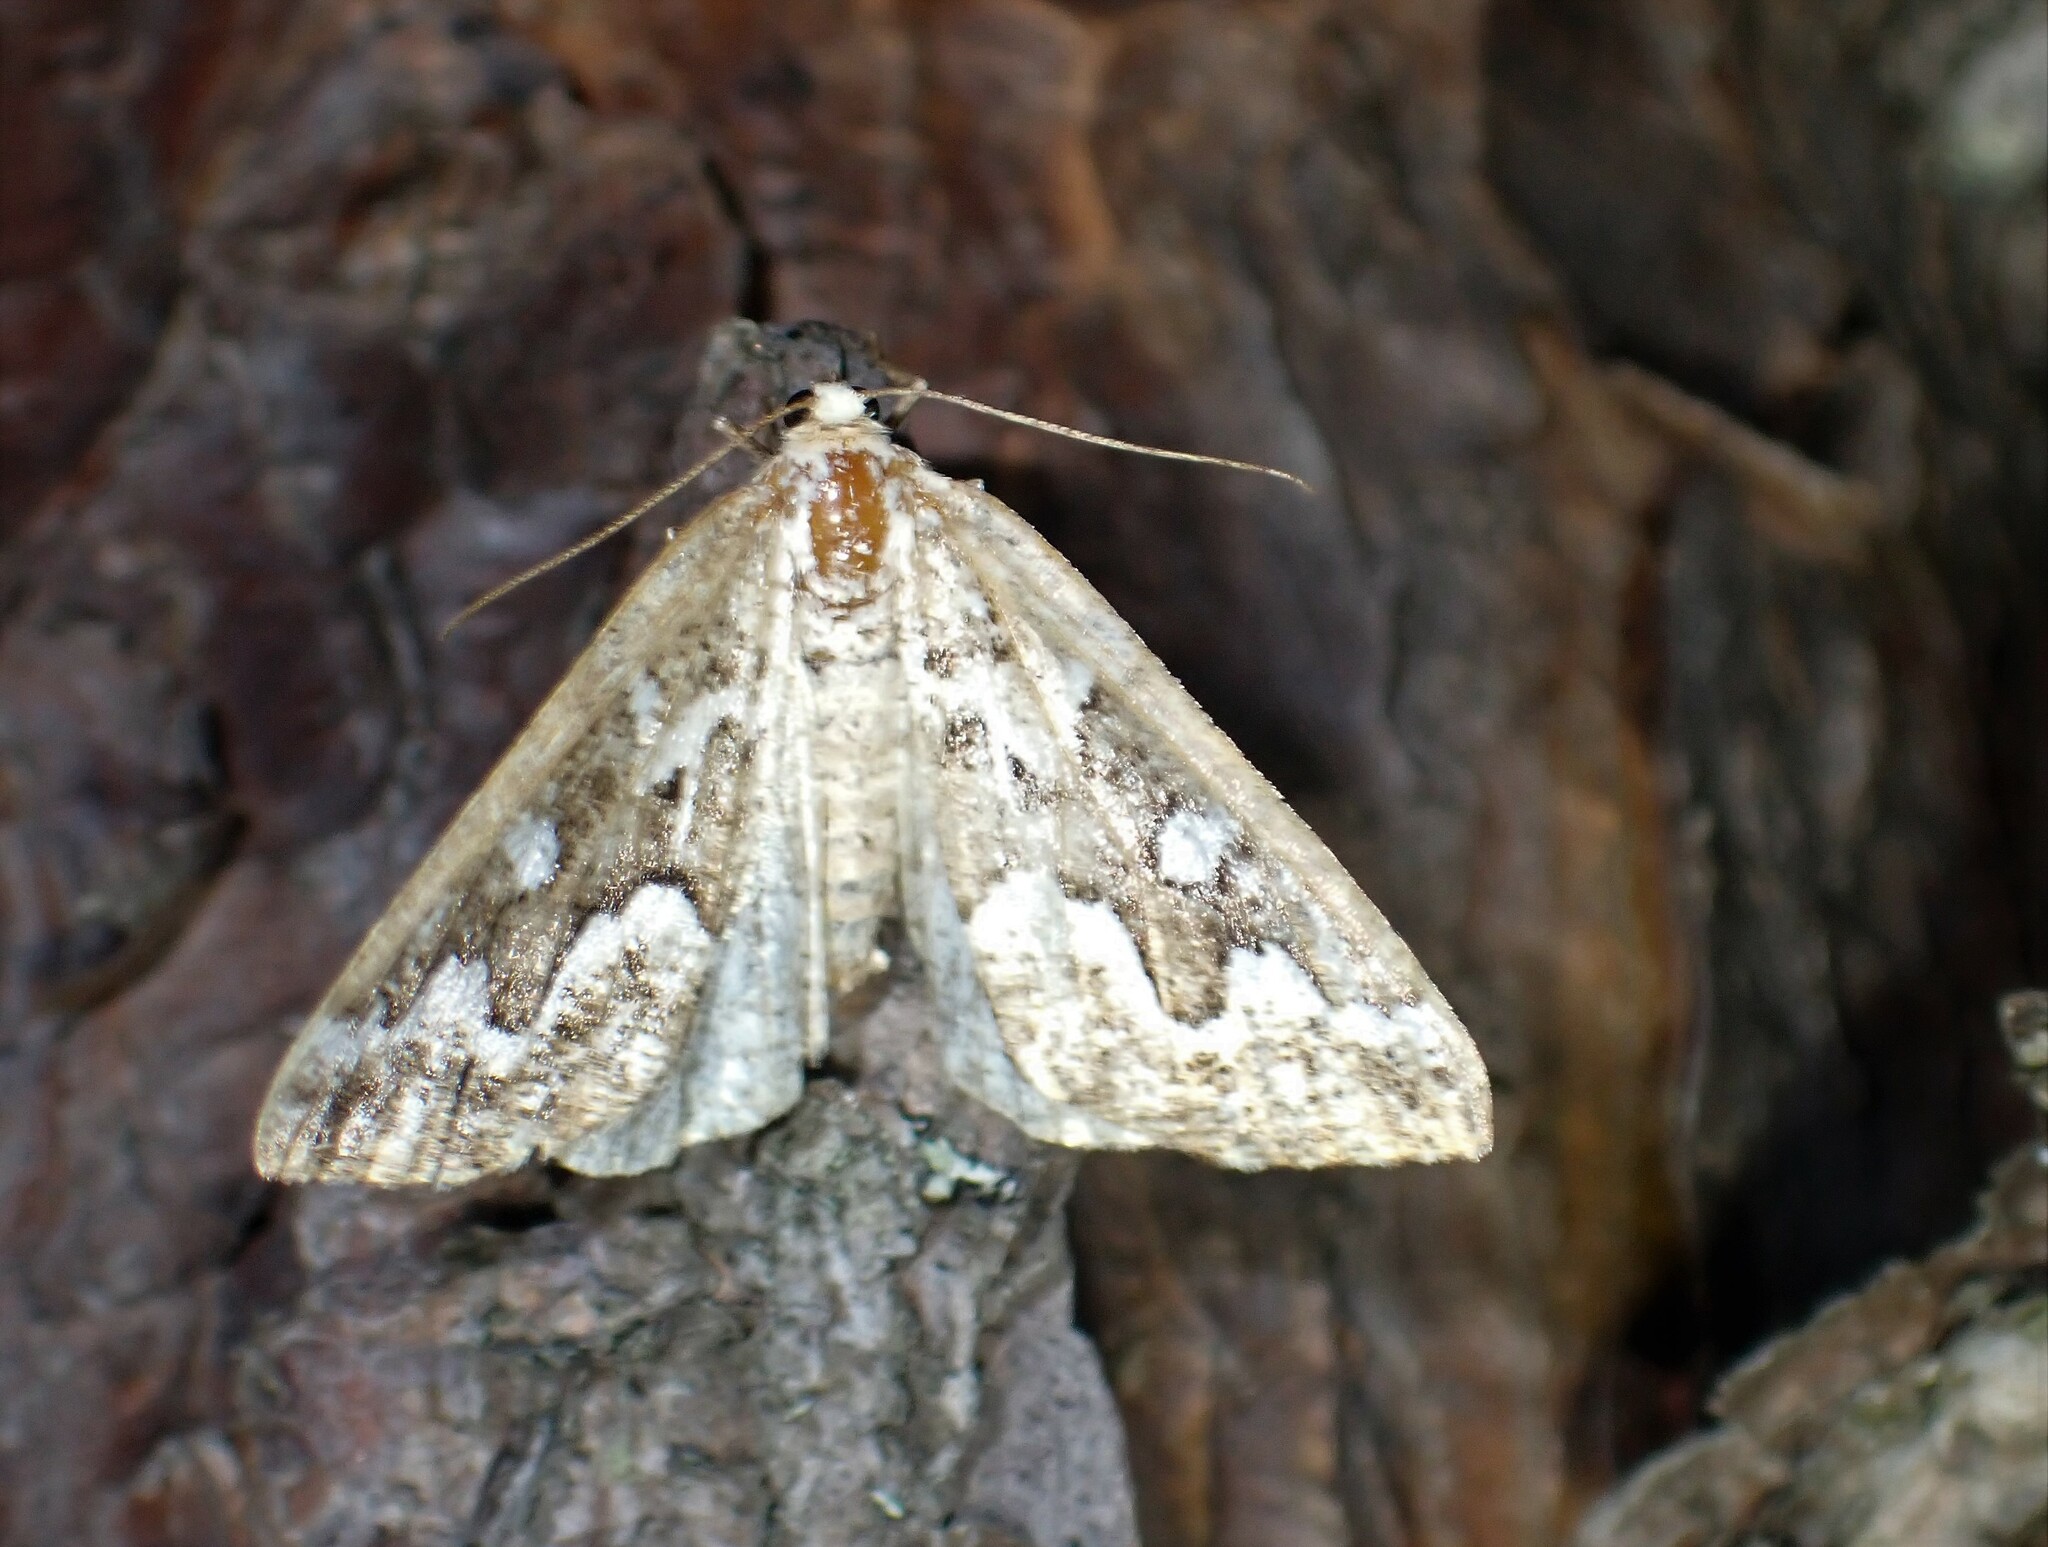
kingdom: Animalia
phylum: Arthropoda
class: Insecta
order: Lepidoptera
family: Geometridae
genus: Caripeta
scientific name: Caripeta divisata
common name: Gray spruce looper
